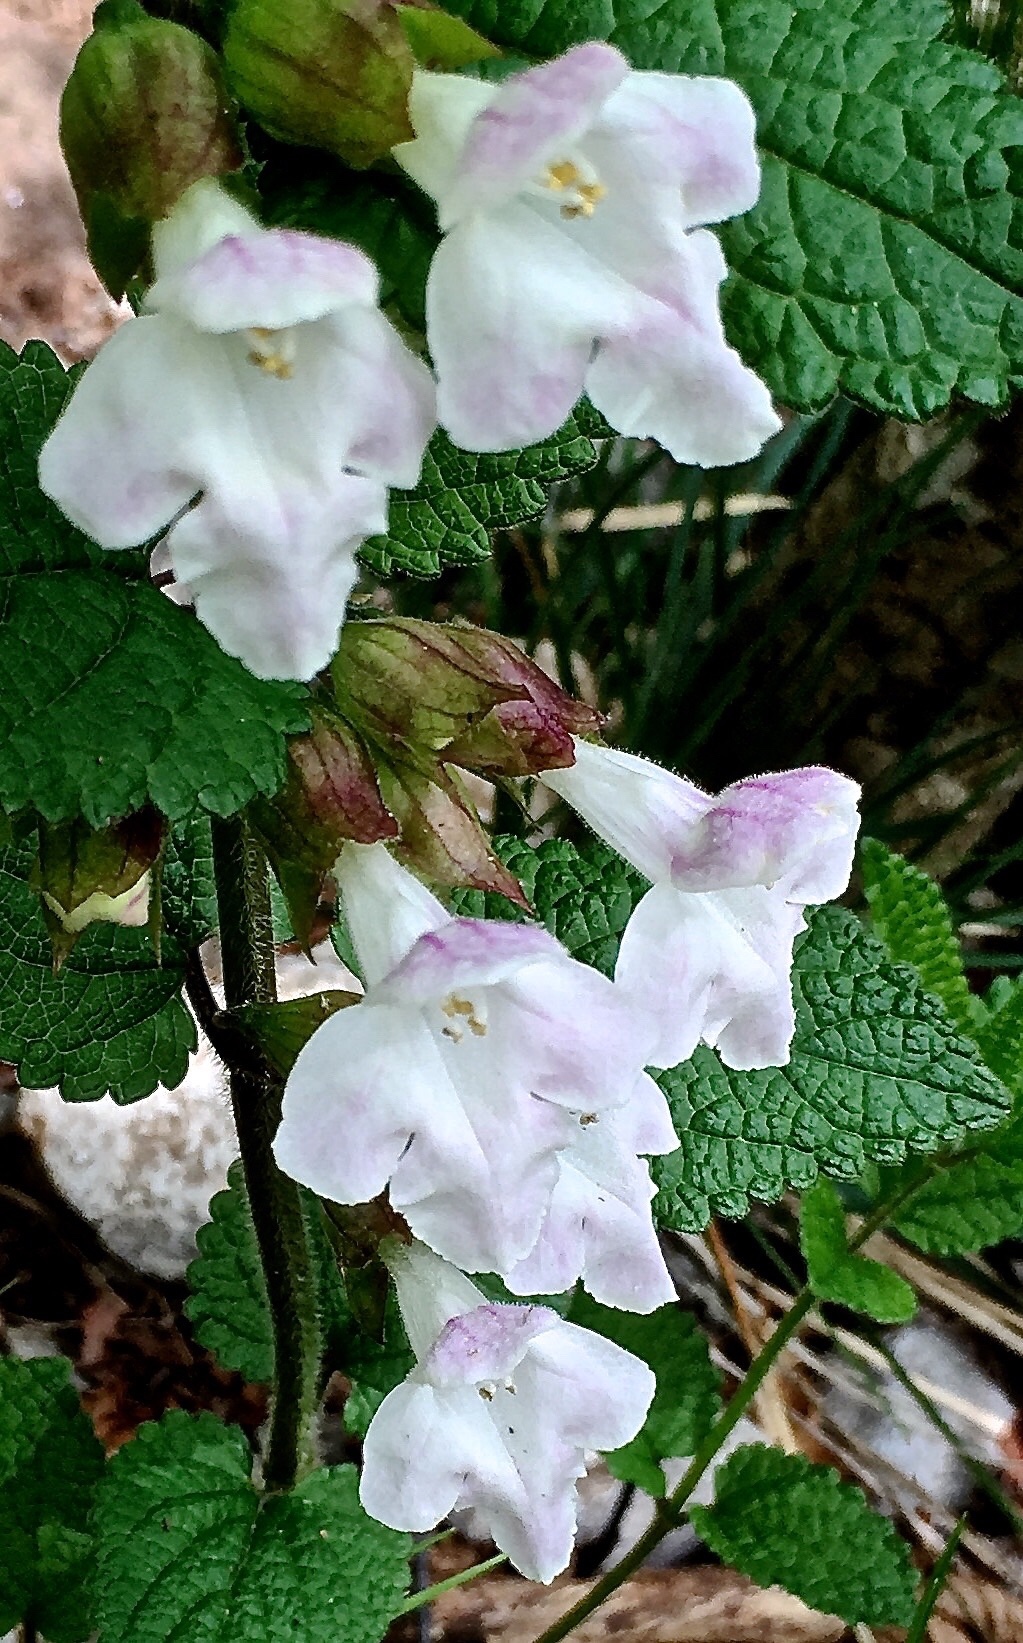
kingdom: Plantae
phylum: Tracheophyta
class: Magnoliopsida
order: Lamiales
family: Lamiaceae
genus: Melittis
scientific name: Melittis melissophyllum
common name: Bastard balm
